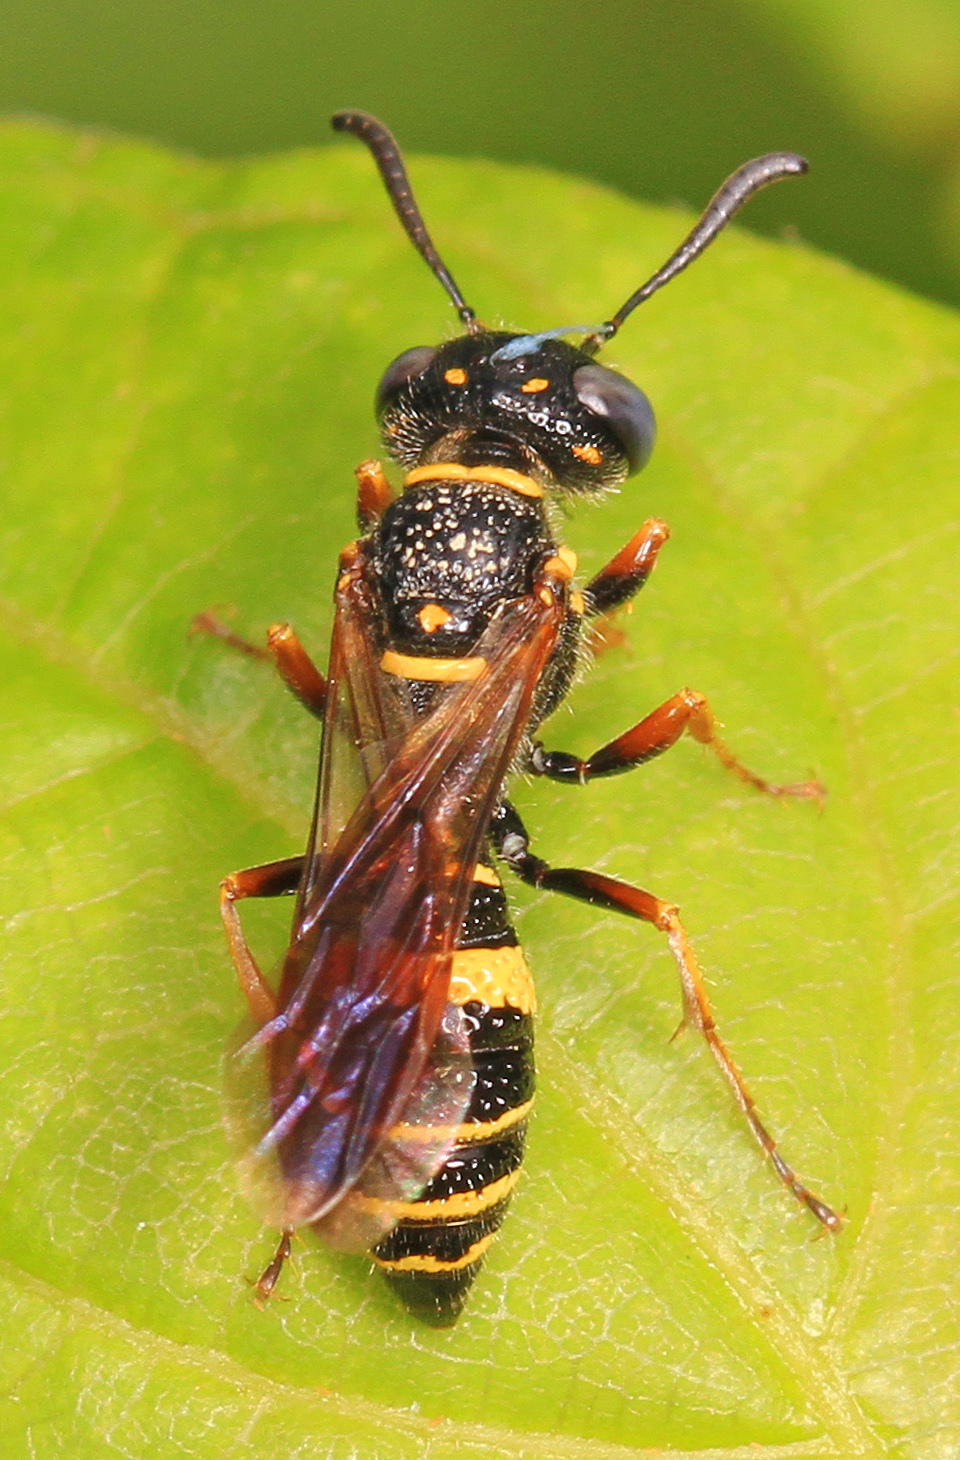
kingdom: Animalia
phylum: Arthropoda
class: Insecta
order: Hymenoptera
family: Crabronidae
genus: Philanthus
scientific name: Philanthus gibbosus
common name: Humped beewolf
